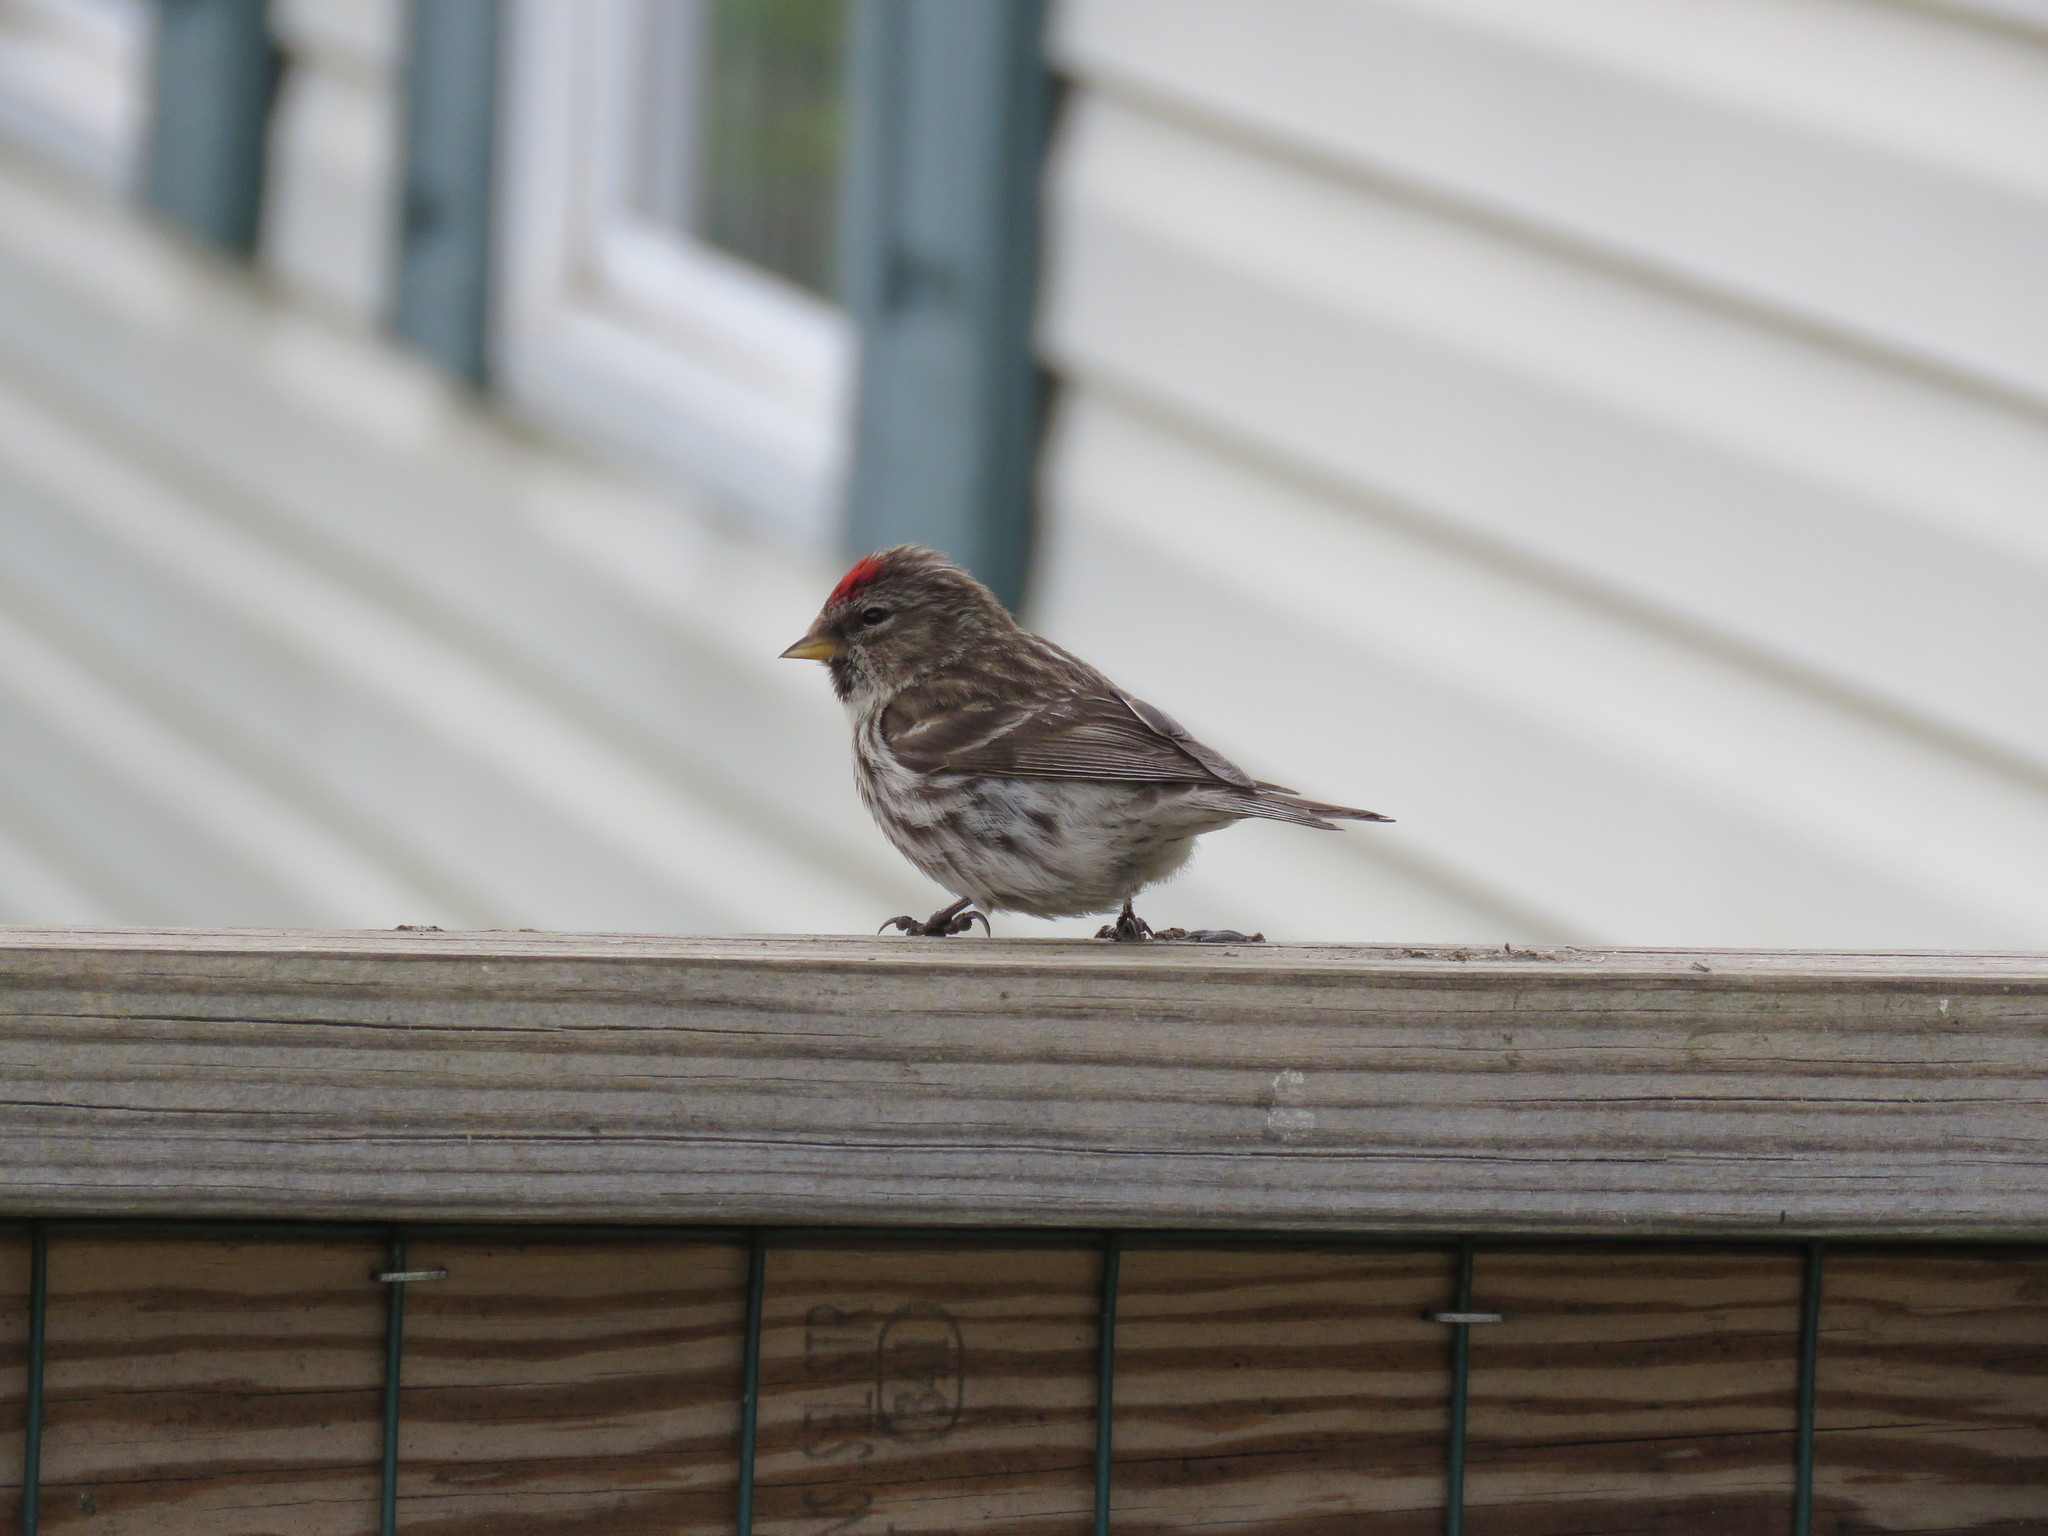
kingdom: Animalia
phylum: Chordata
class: Aves
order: Passeriformes
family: Fringillidae
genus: Acanthis
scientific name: Acanthis flammea
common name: Common redpoll
